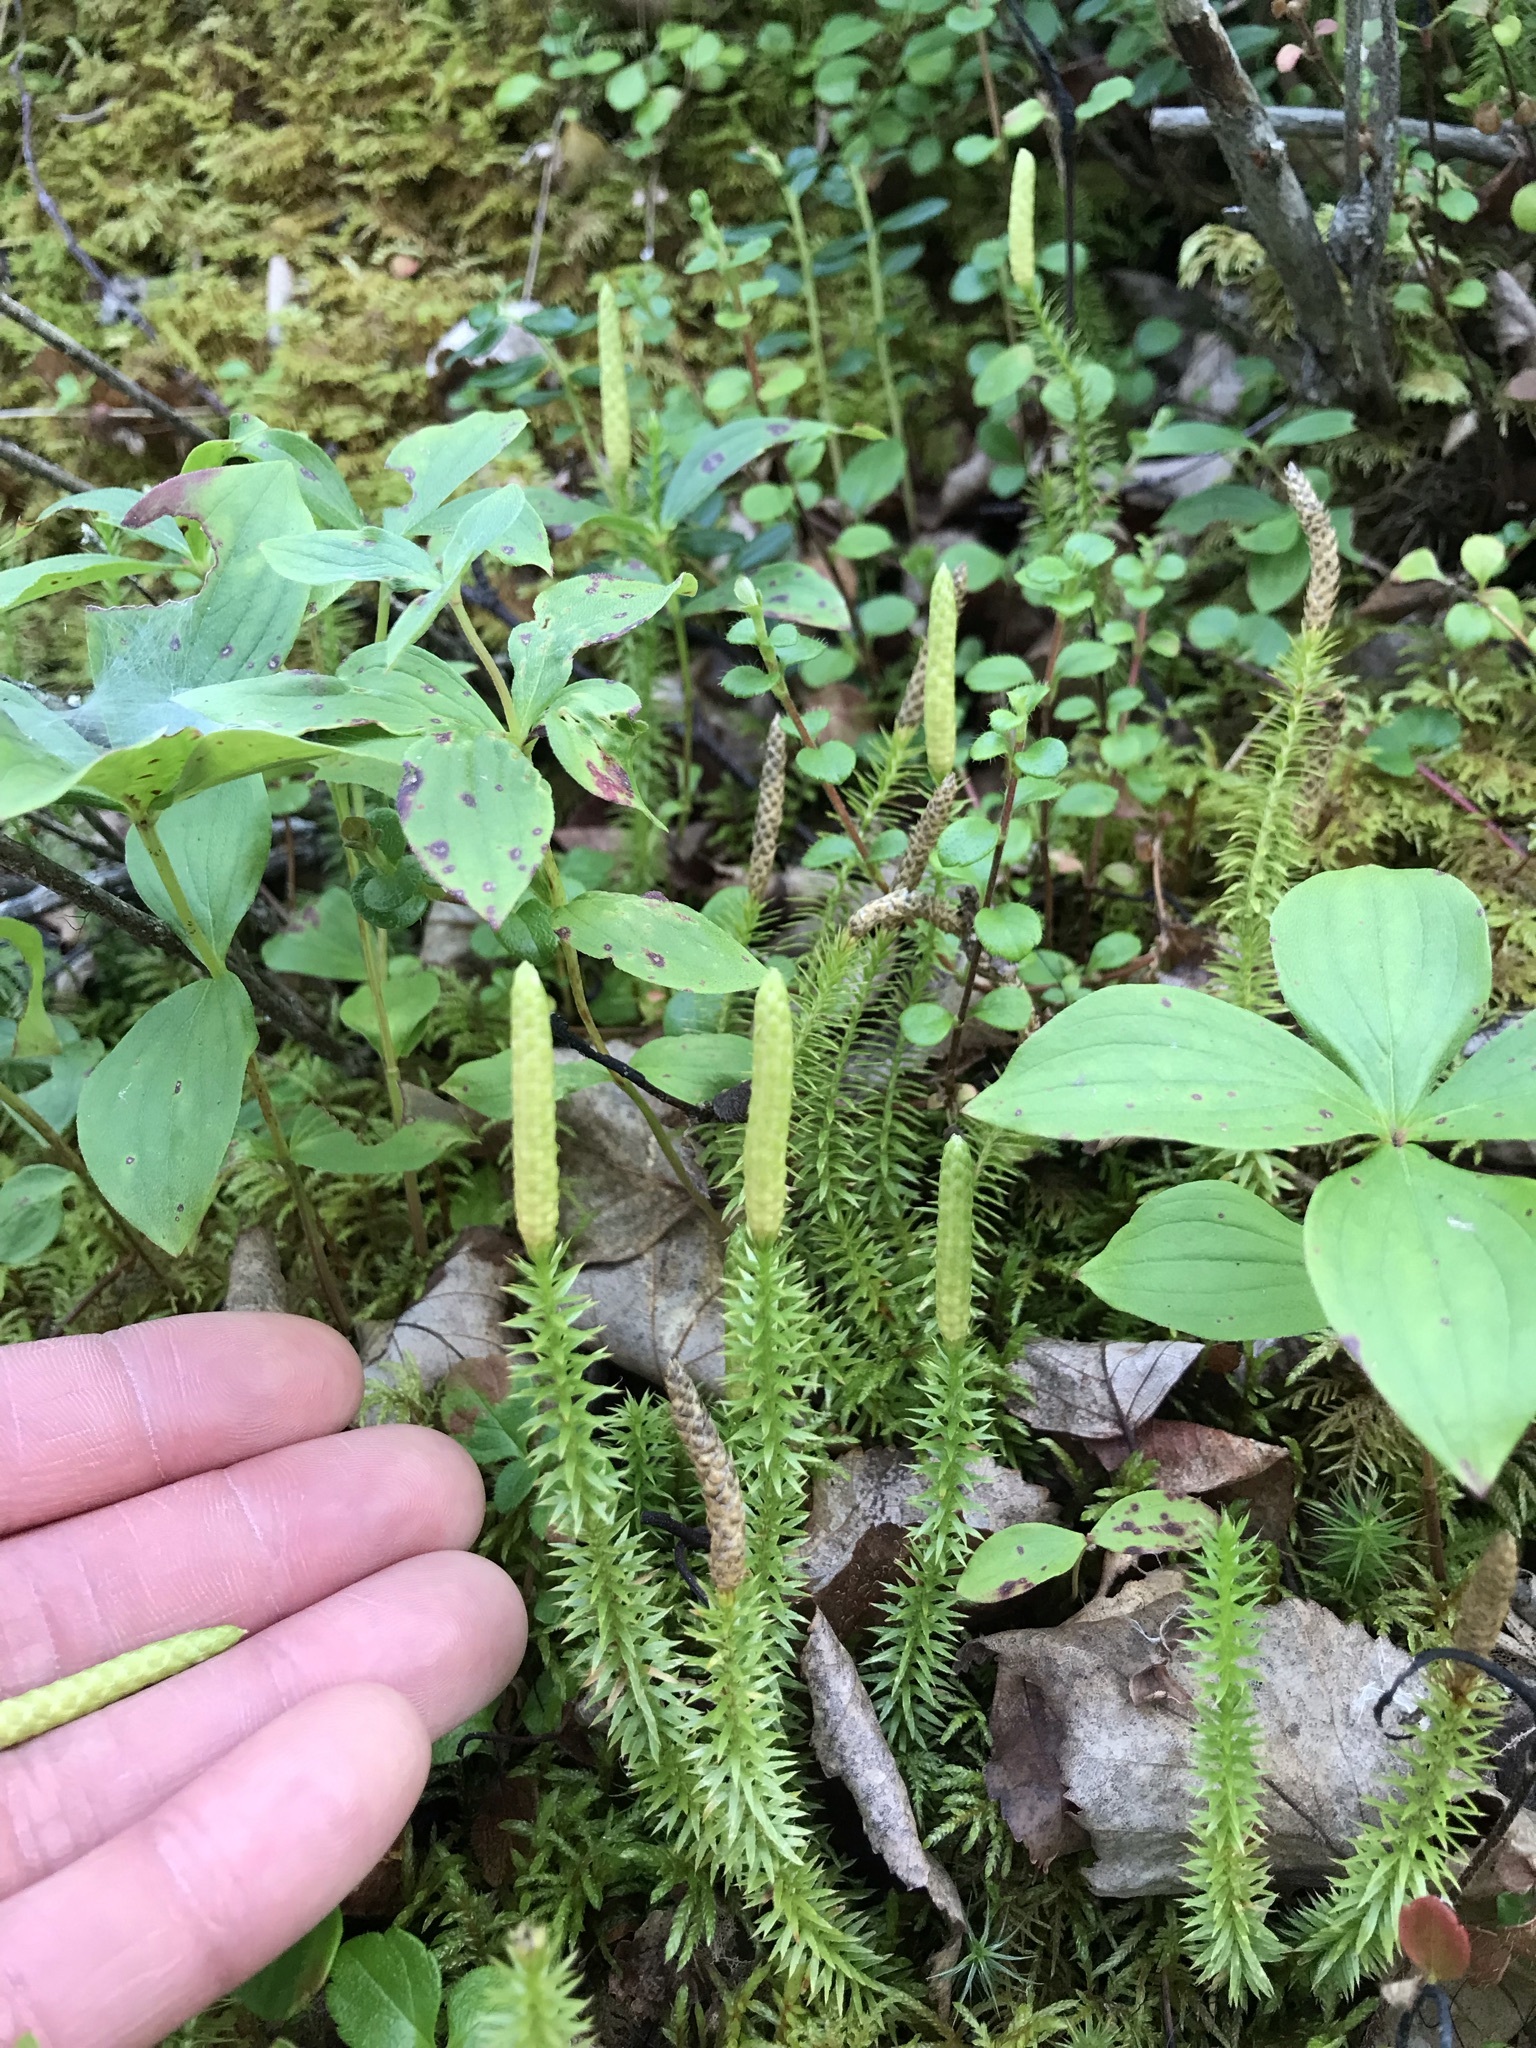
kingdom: Plantae
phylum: Tracheophyta
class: Lycopodiopsida
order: Lycopodiales
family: Lycopodiaceae
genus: Spinulum
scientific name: Spinulum annotinum
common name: Interrupted club-moss
